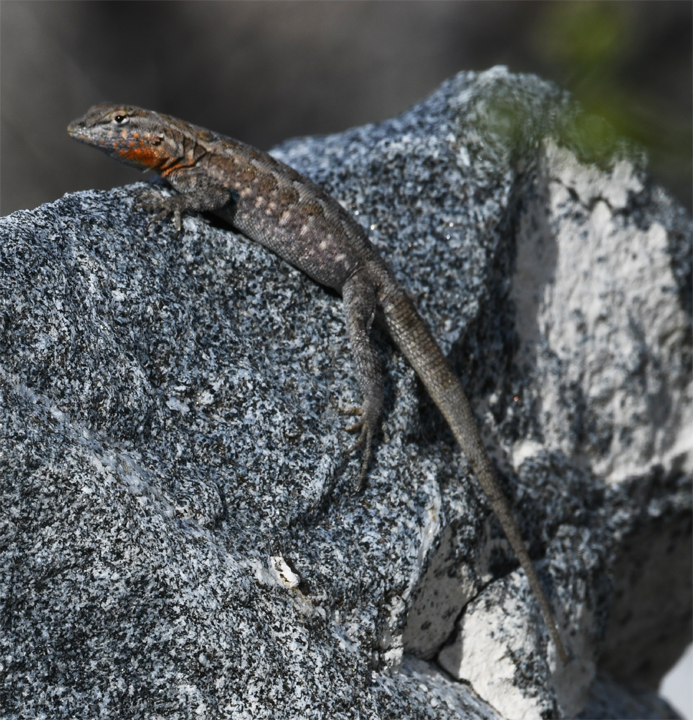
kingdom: Animalia
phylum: Chordata
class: Squamata
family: Phrynosomatidae
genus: Uta
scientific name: Uta stansburiana
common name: Side-blotched lizard
